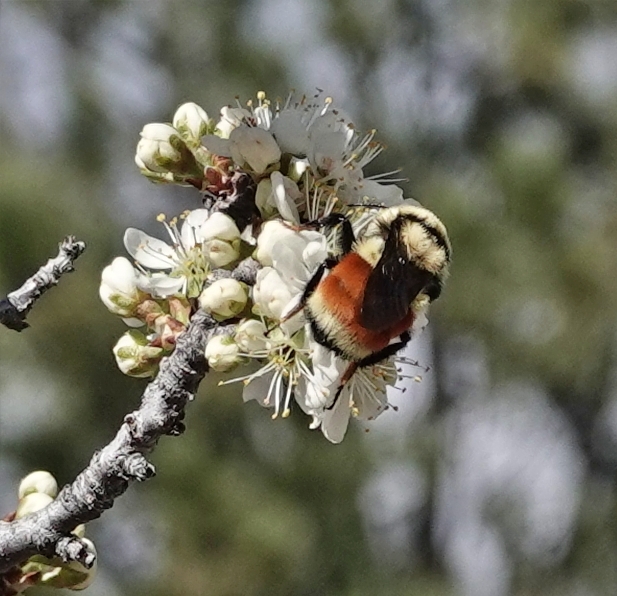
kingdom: Animalia
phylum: Arthropoda
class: Insecta
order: Hymenoptera
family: Apidae
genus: Bombus
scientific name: Bombus huntii
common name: Hunt bumble bee
